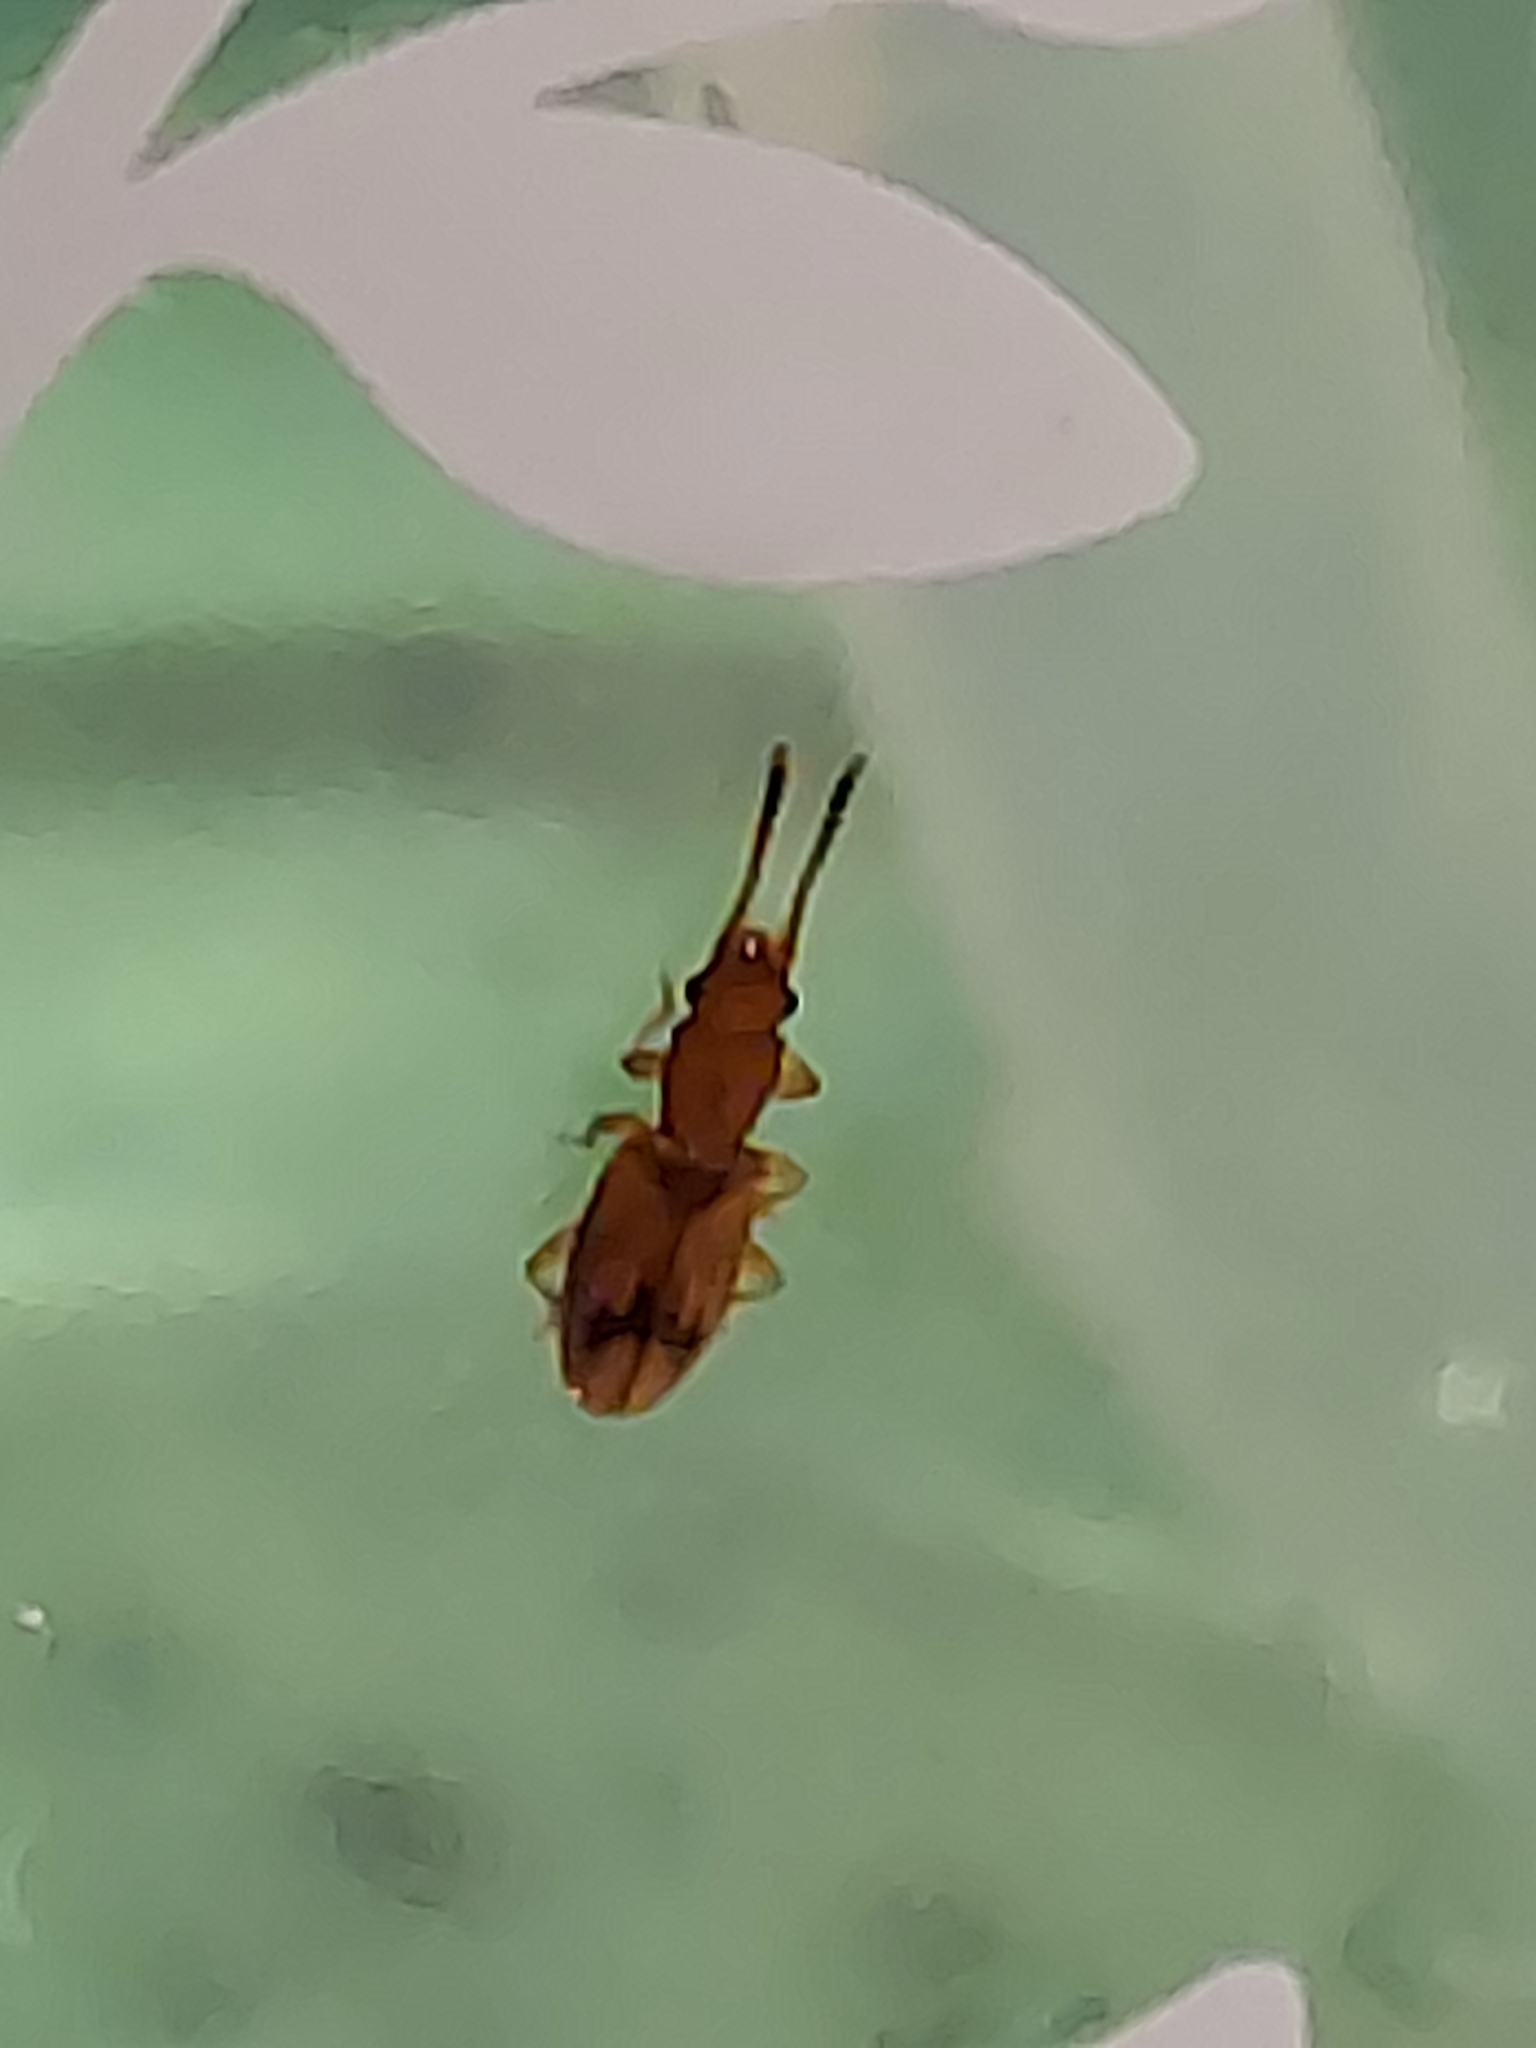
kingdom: Animalia
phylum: Arthropoda
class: Insecta
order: Coleoptera
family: Silvanidae
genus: Cryptamorpha
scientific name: Cryptamorpha desjardinsi
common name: Cryptamorpha
